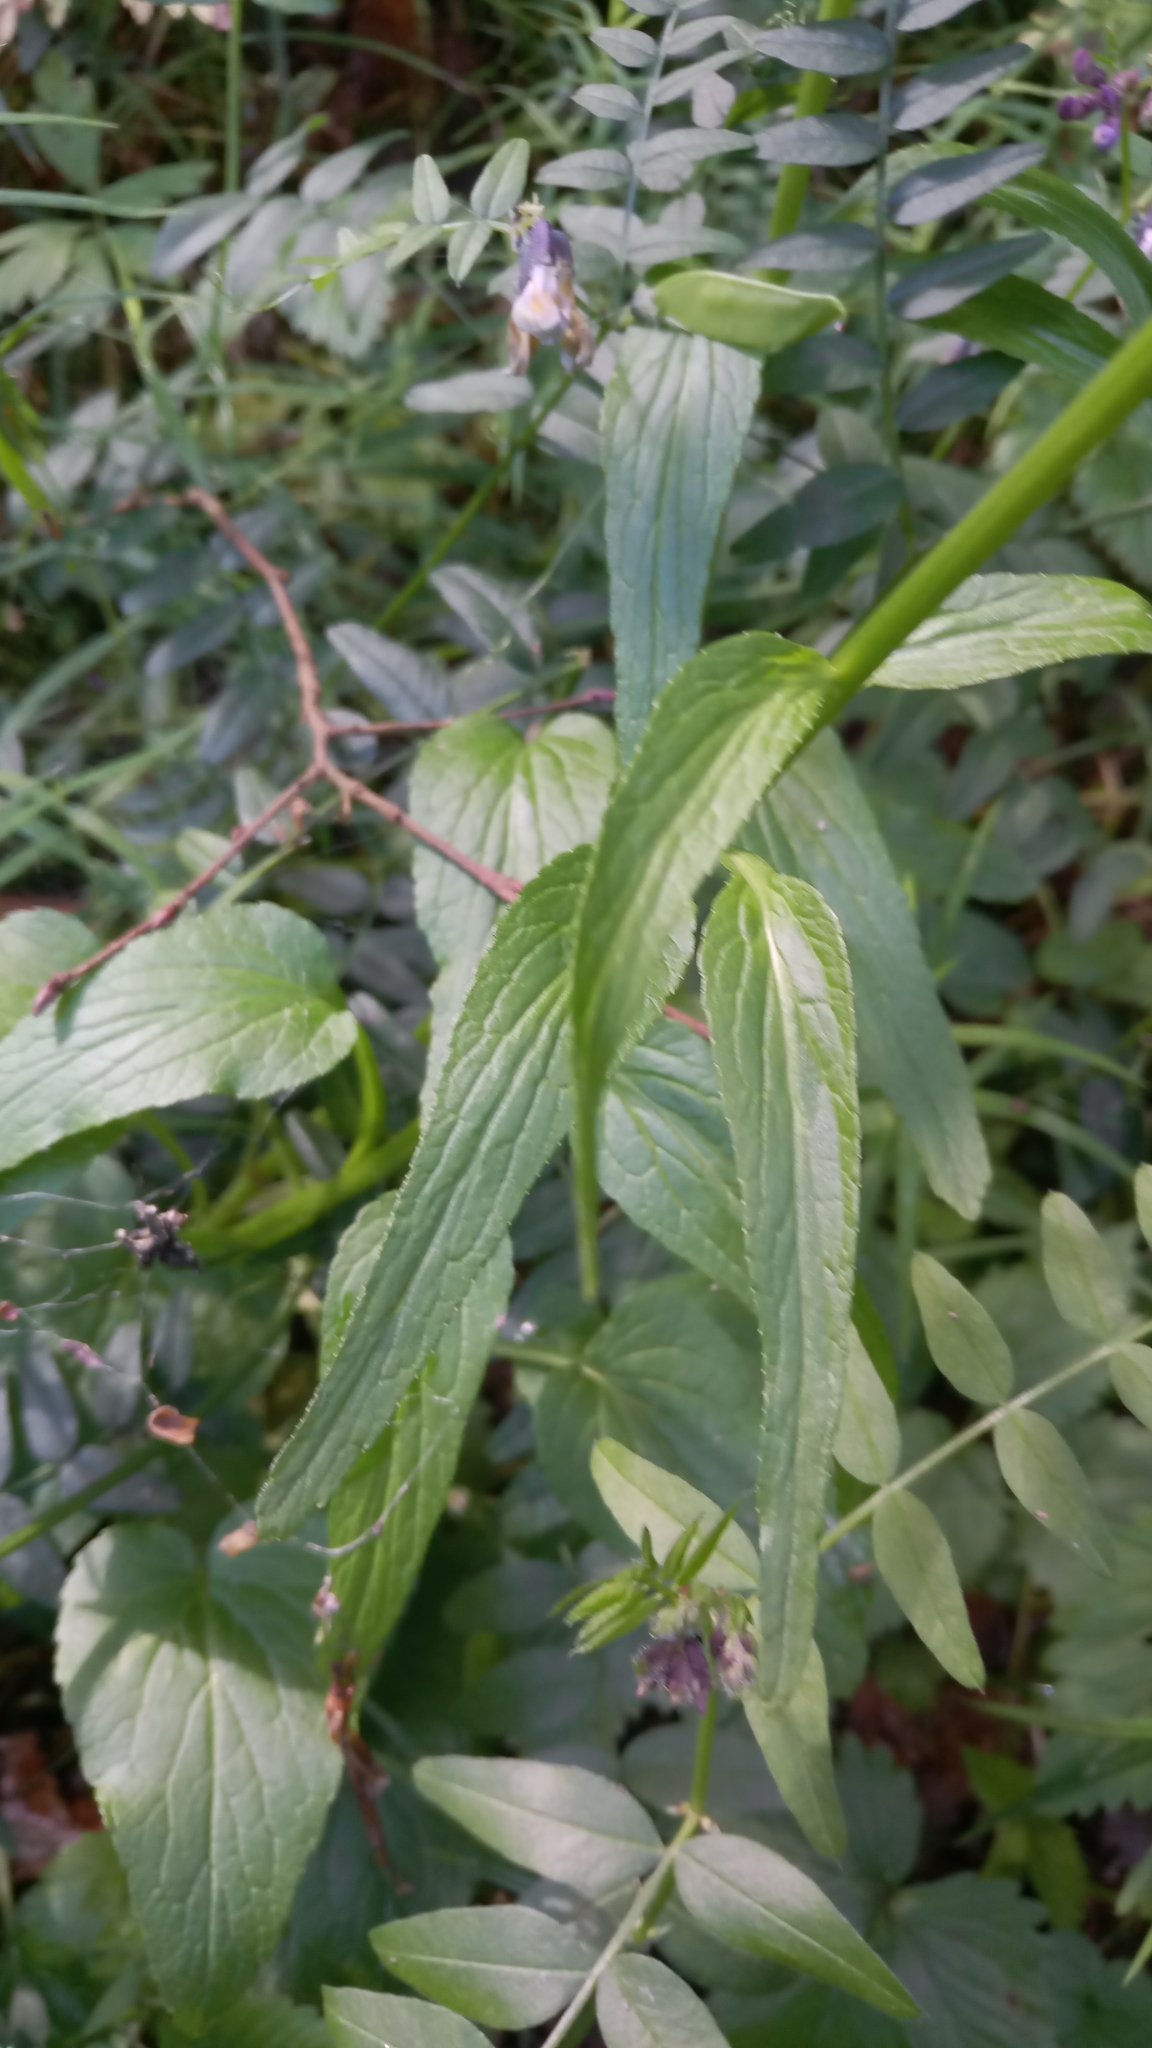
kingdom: Plantae
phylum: Tracheophyta
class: Magnoliopsida
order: Asterales
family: Campanulaceae
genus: Phyteuma
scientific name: Phyteuma spicatum
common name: Spiked rampion
